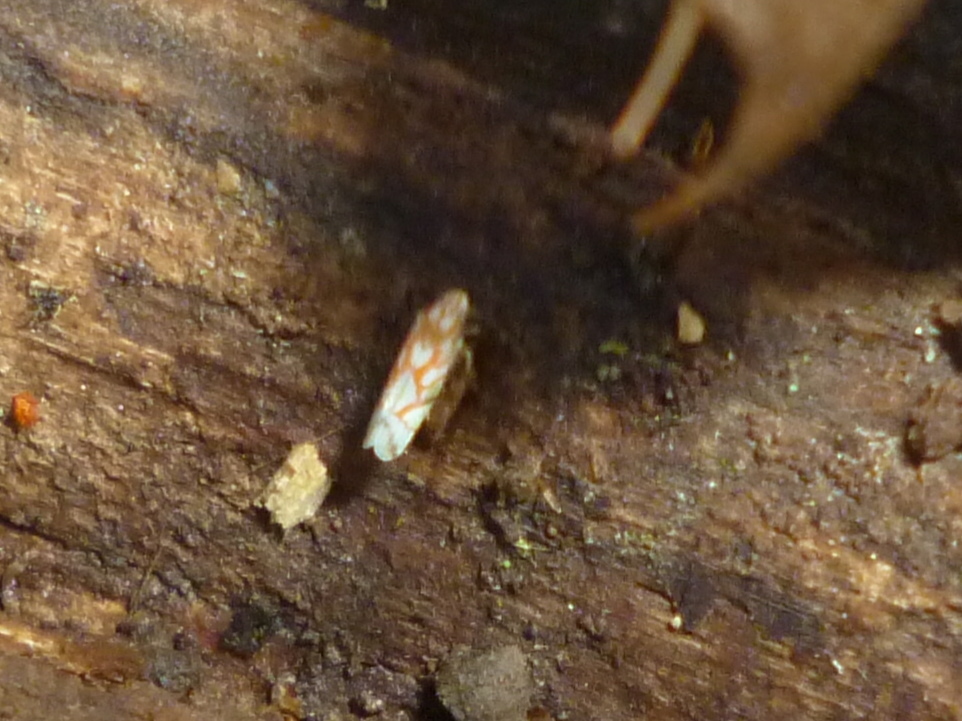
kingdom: Animalia
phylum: Arthropoda
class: Insecta
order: Hemiptera
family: Cicadellidae
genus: Erythroneura
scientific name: Erythroneura acuticephala
